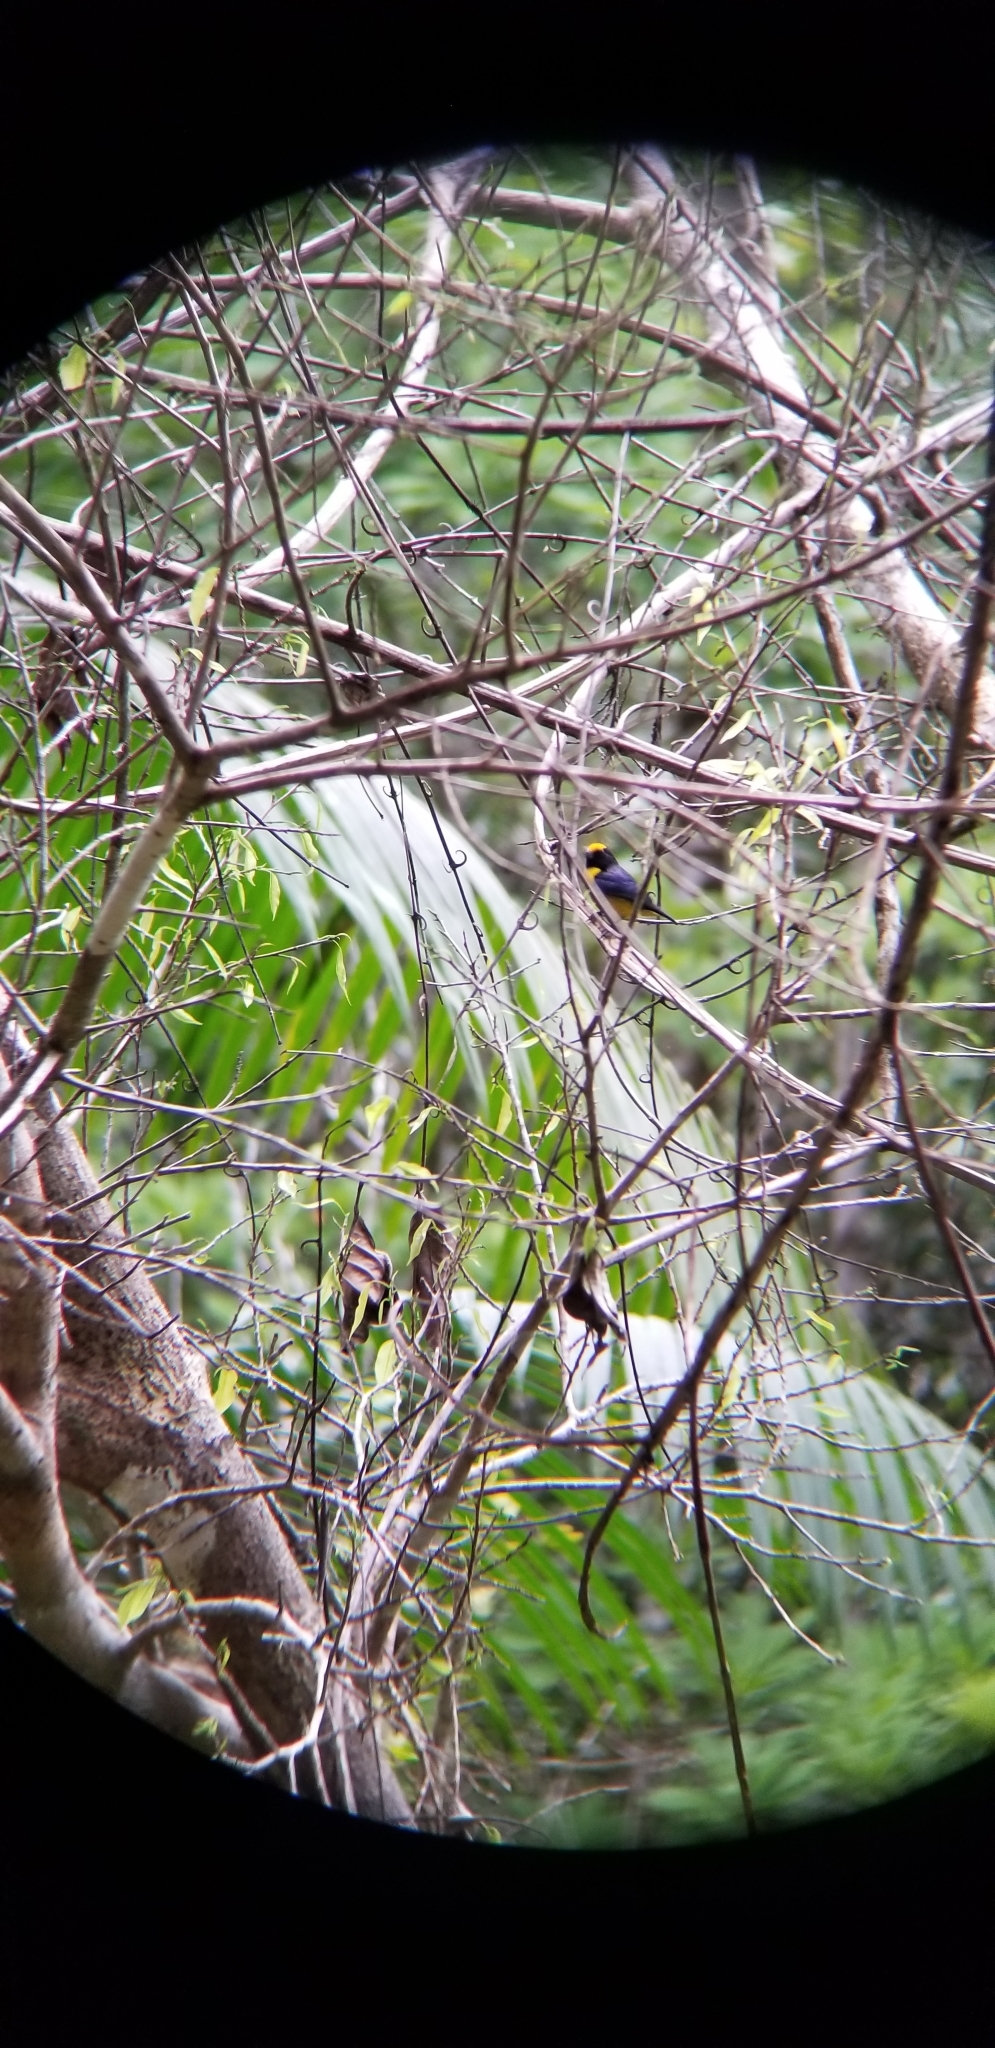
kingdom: Animalia
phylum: Chordata
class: Aves
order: Passeriformes
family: Fringillidae
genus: Euphonia
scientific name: Euphonia xanthogaster
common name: Orange-bellied euphonia
